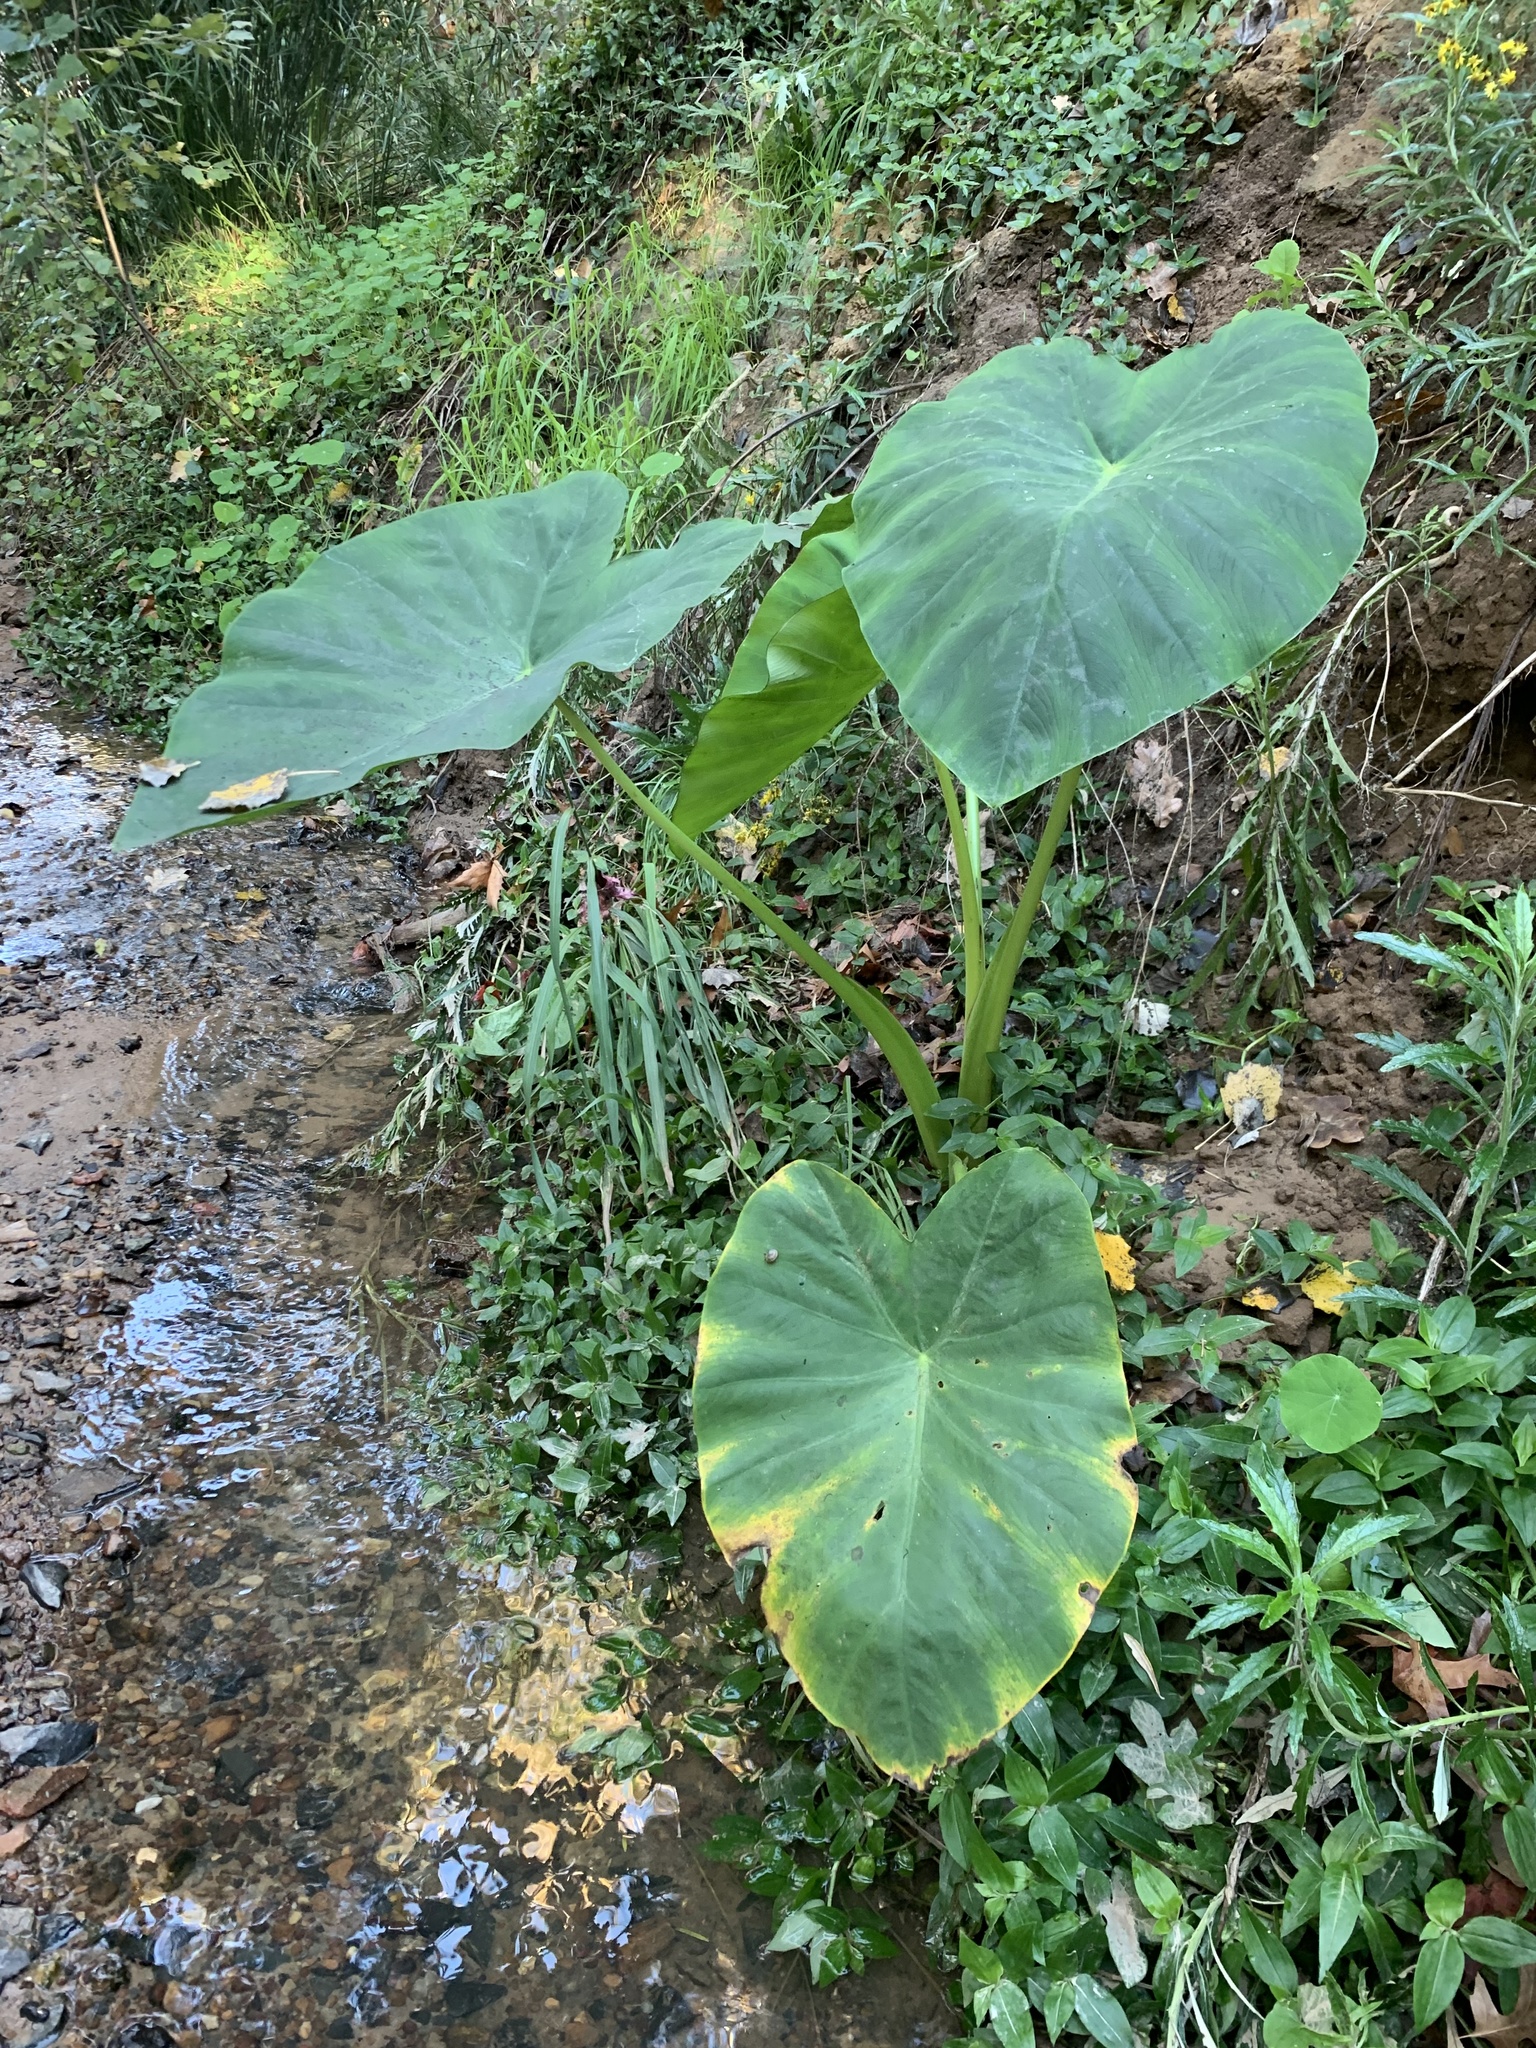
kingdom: Plantae
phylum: Tracheophyta
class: Liliopsida
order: Alismatales
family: Araceae
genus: Colocasia
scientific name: Colocasia esculenta
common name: Taro
